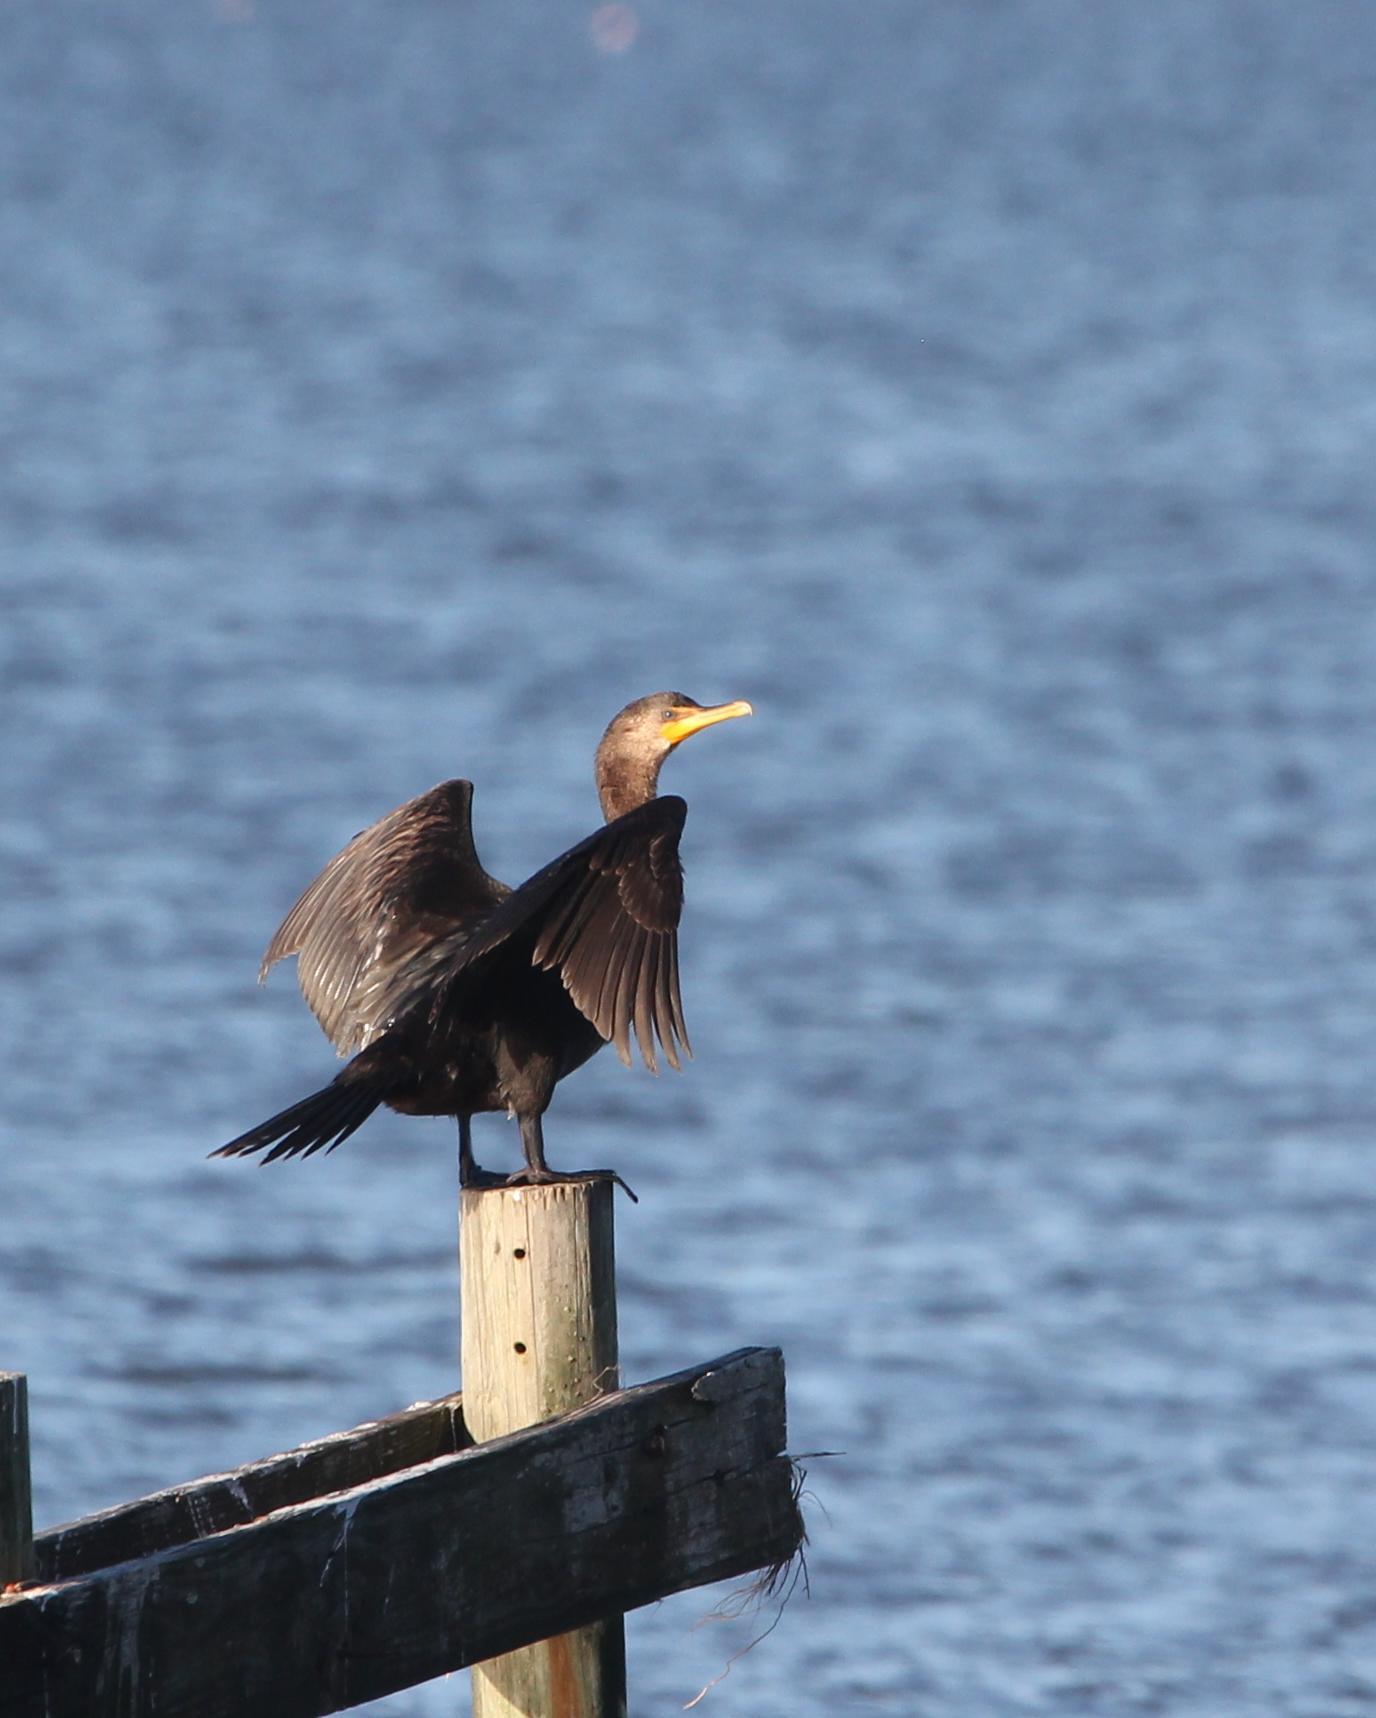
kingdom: Animalia
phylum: Chordata
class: Aves
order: Suliformes
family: Phalacrocoracidae
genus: Phalacrocorax
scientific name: Phalacrocorax auritus
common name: Double-crested cormorant
